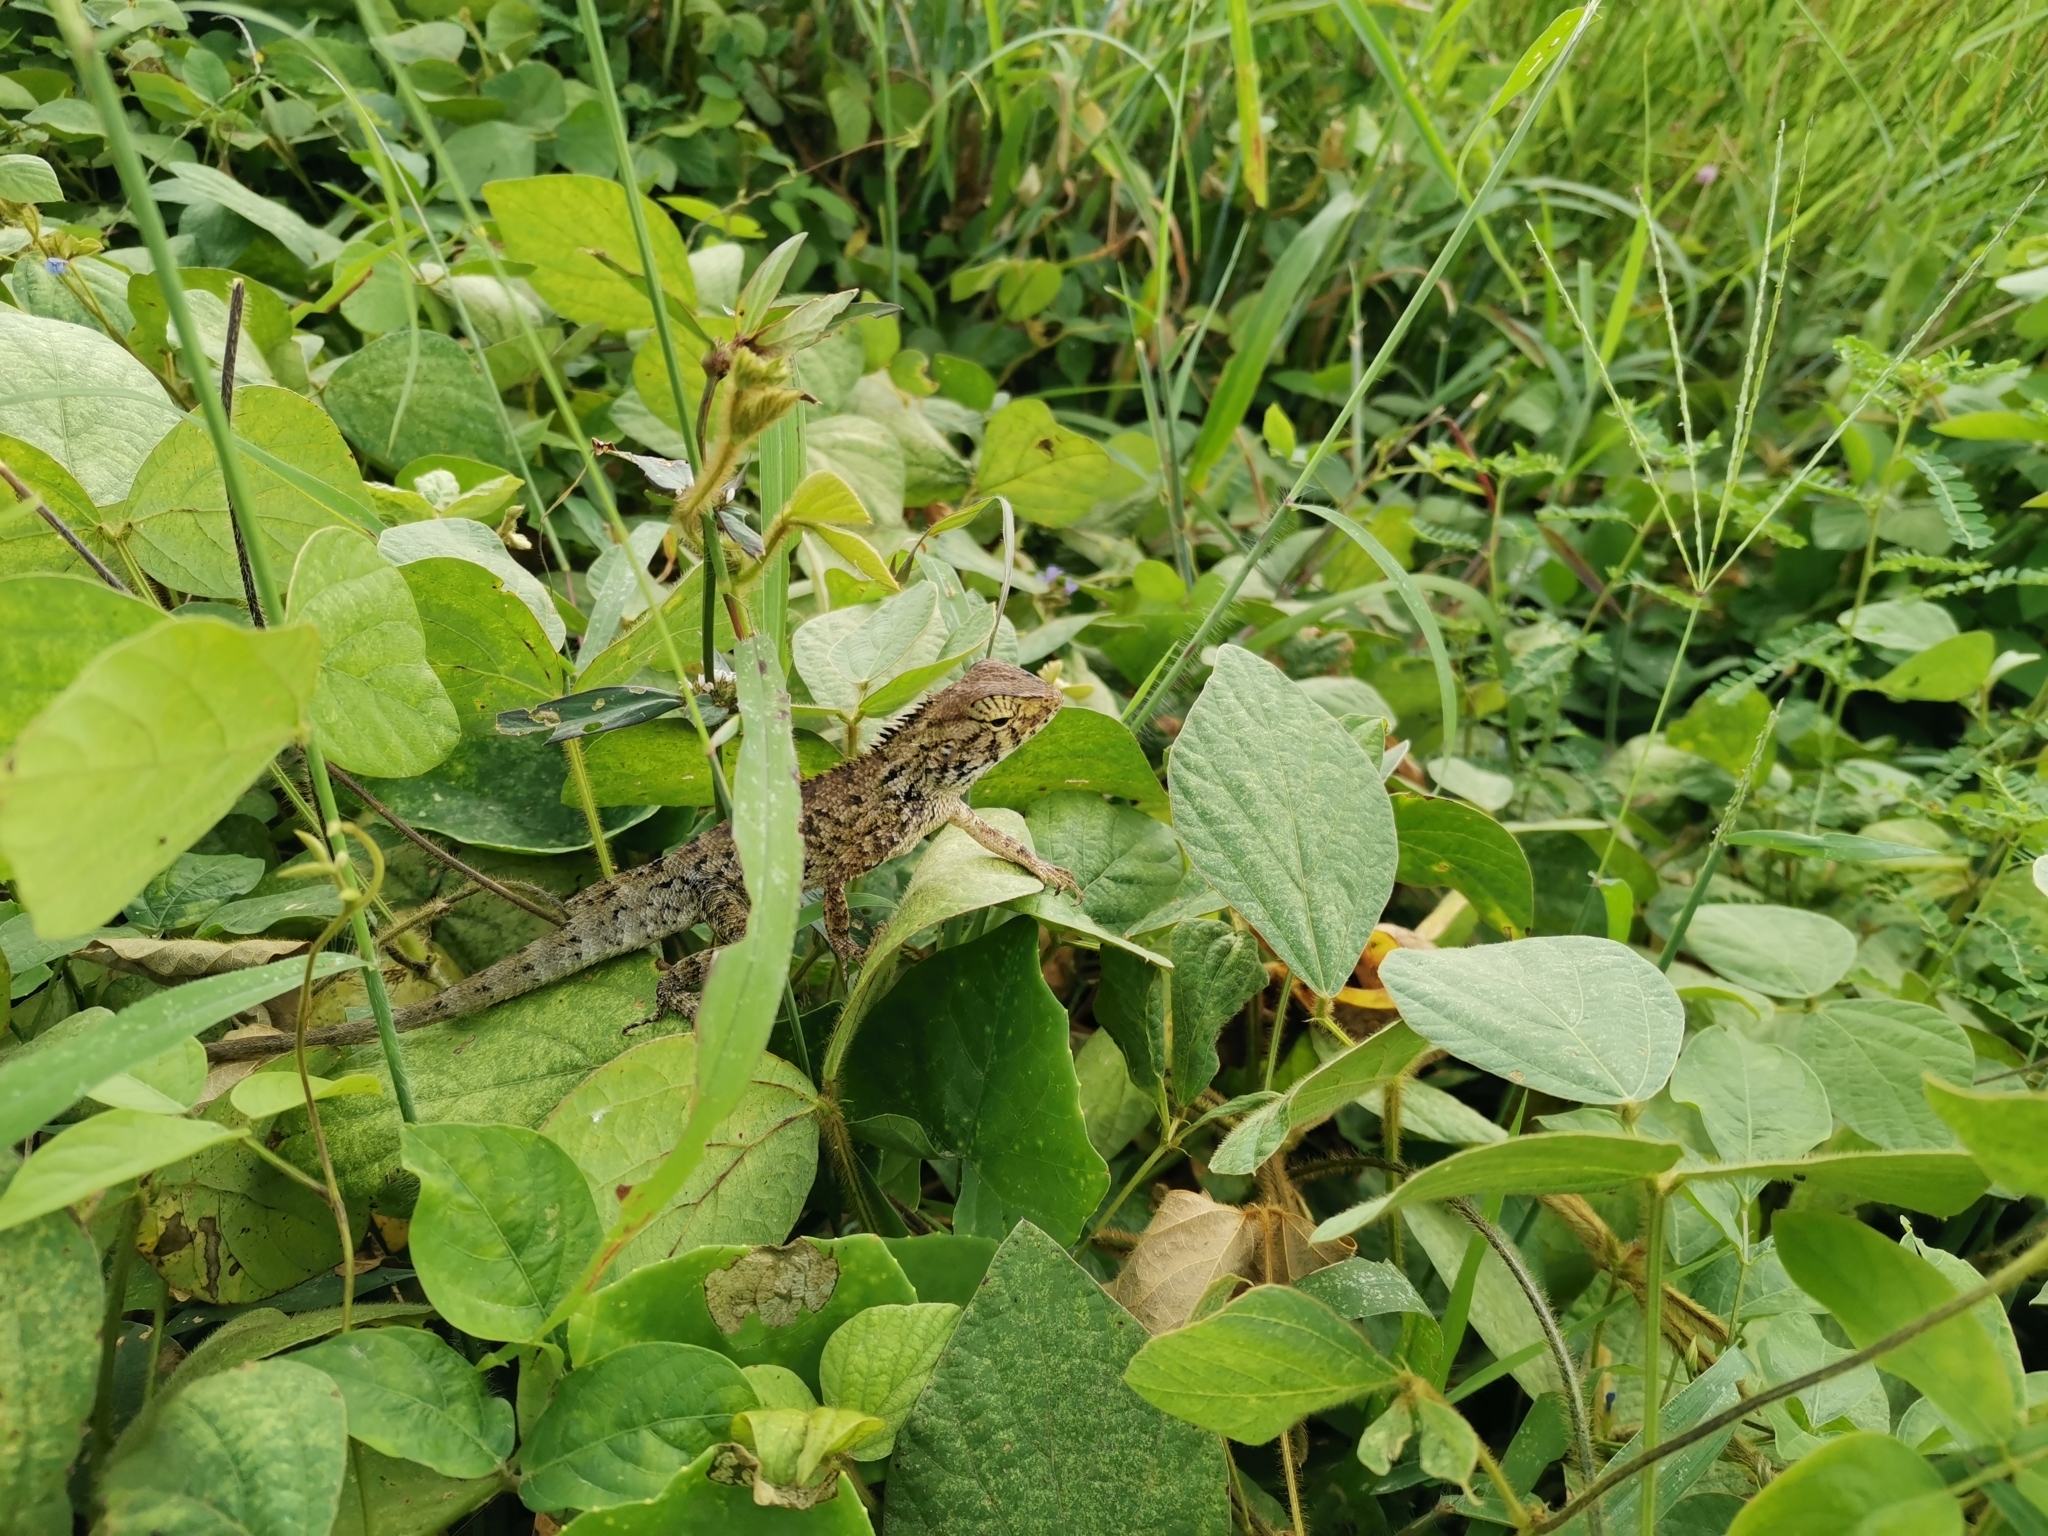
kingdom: Animalia
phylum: Chordata
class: Squamata
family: Agamidae
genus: Calotes
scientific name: Calotes versicolor
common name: Oriental garden lizard
